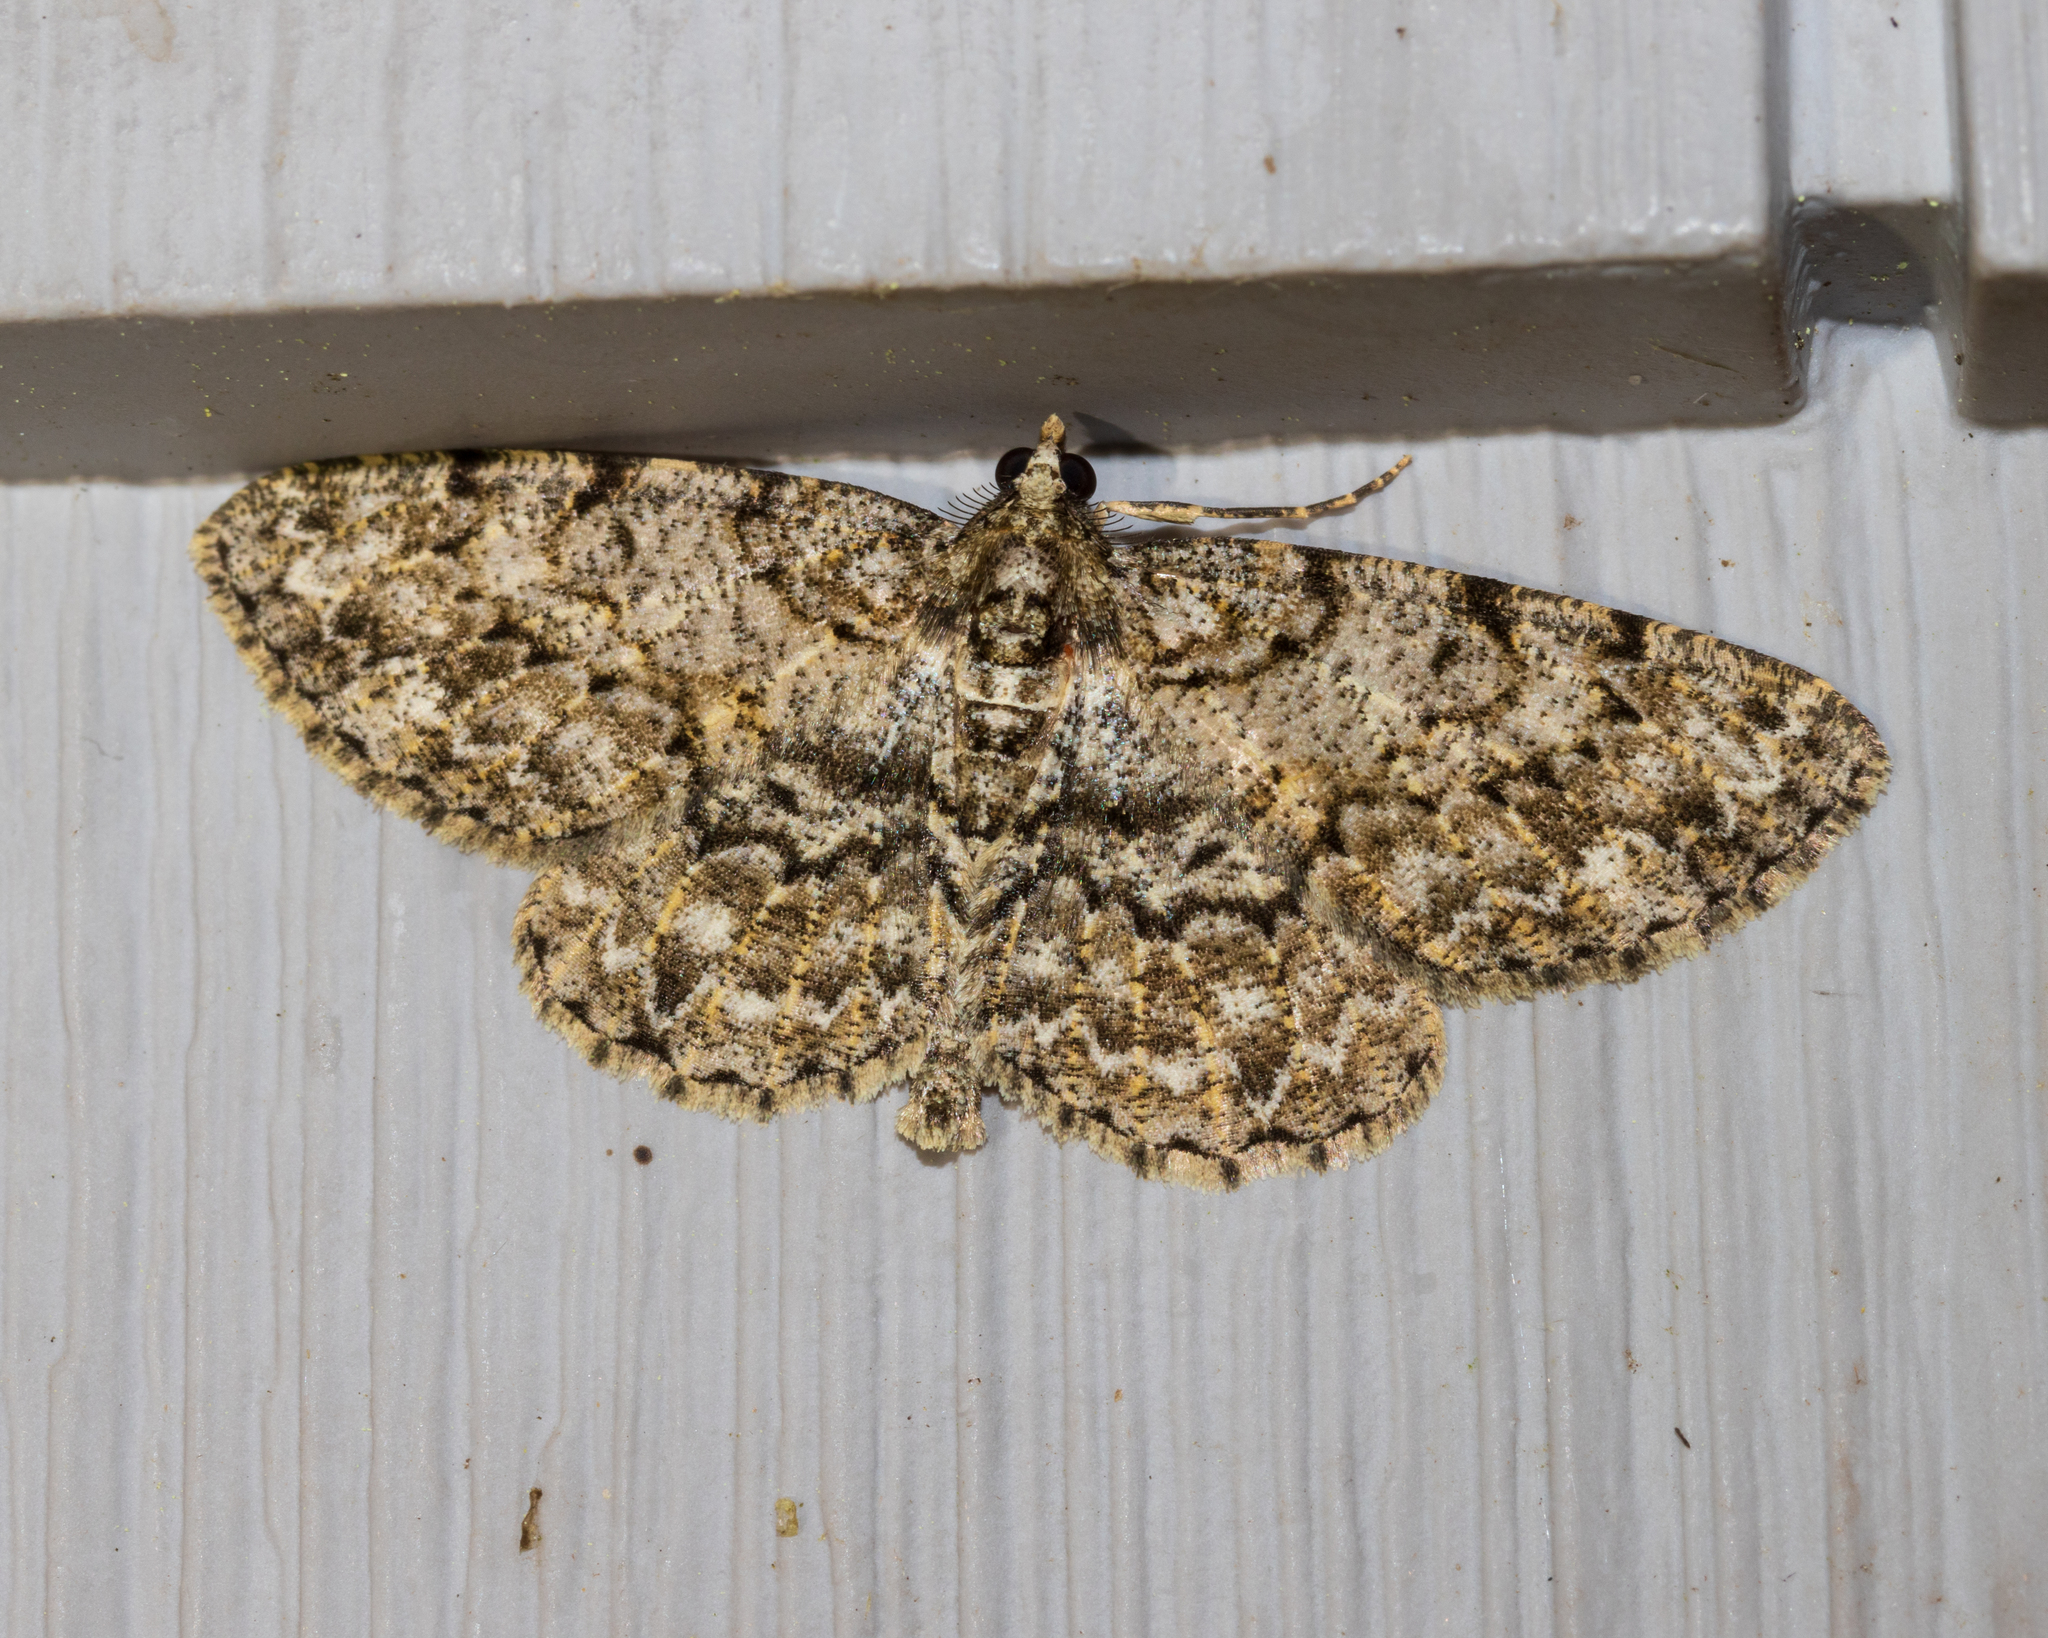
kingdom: Animalia
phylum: Arthropoda
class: Insecta
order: Lepidoptera
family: Geometridae
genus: Protoboarmia
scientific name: Protoboarmia porcelaria
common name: Porcelain gray
